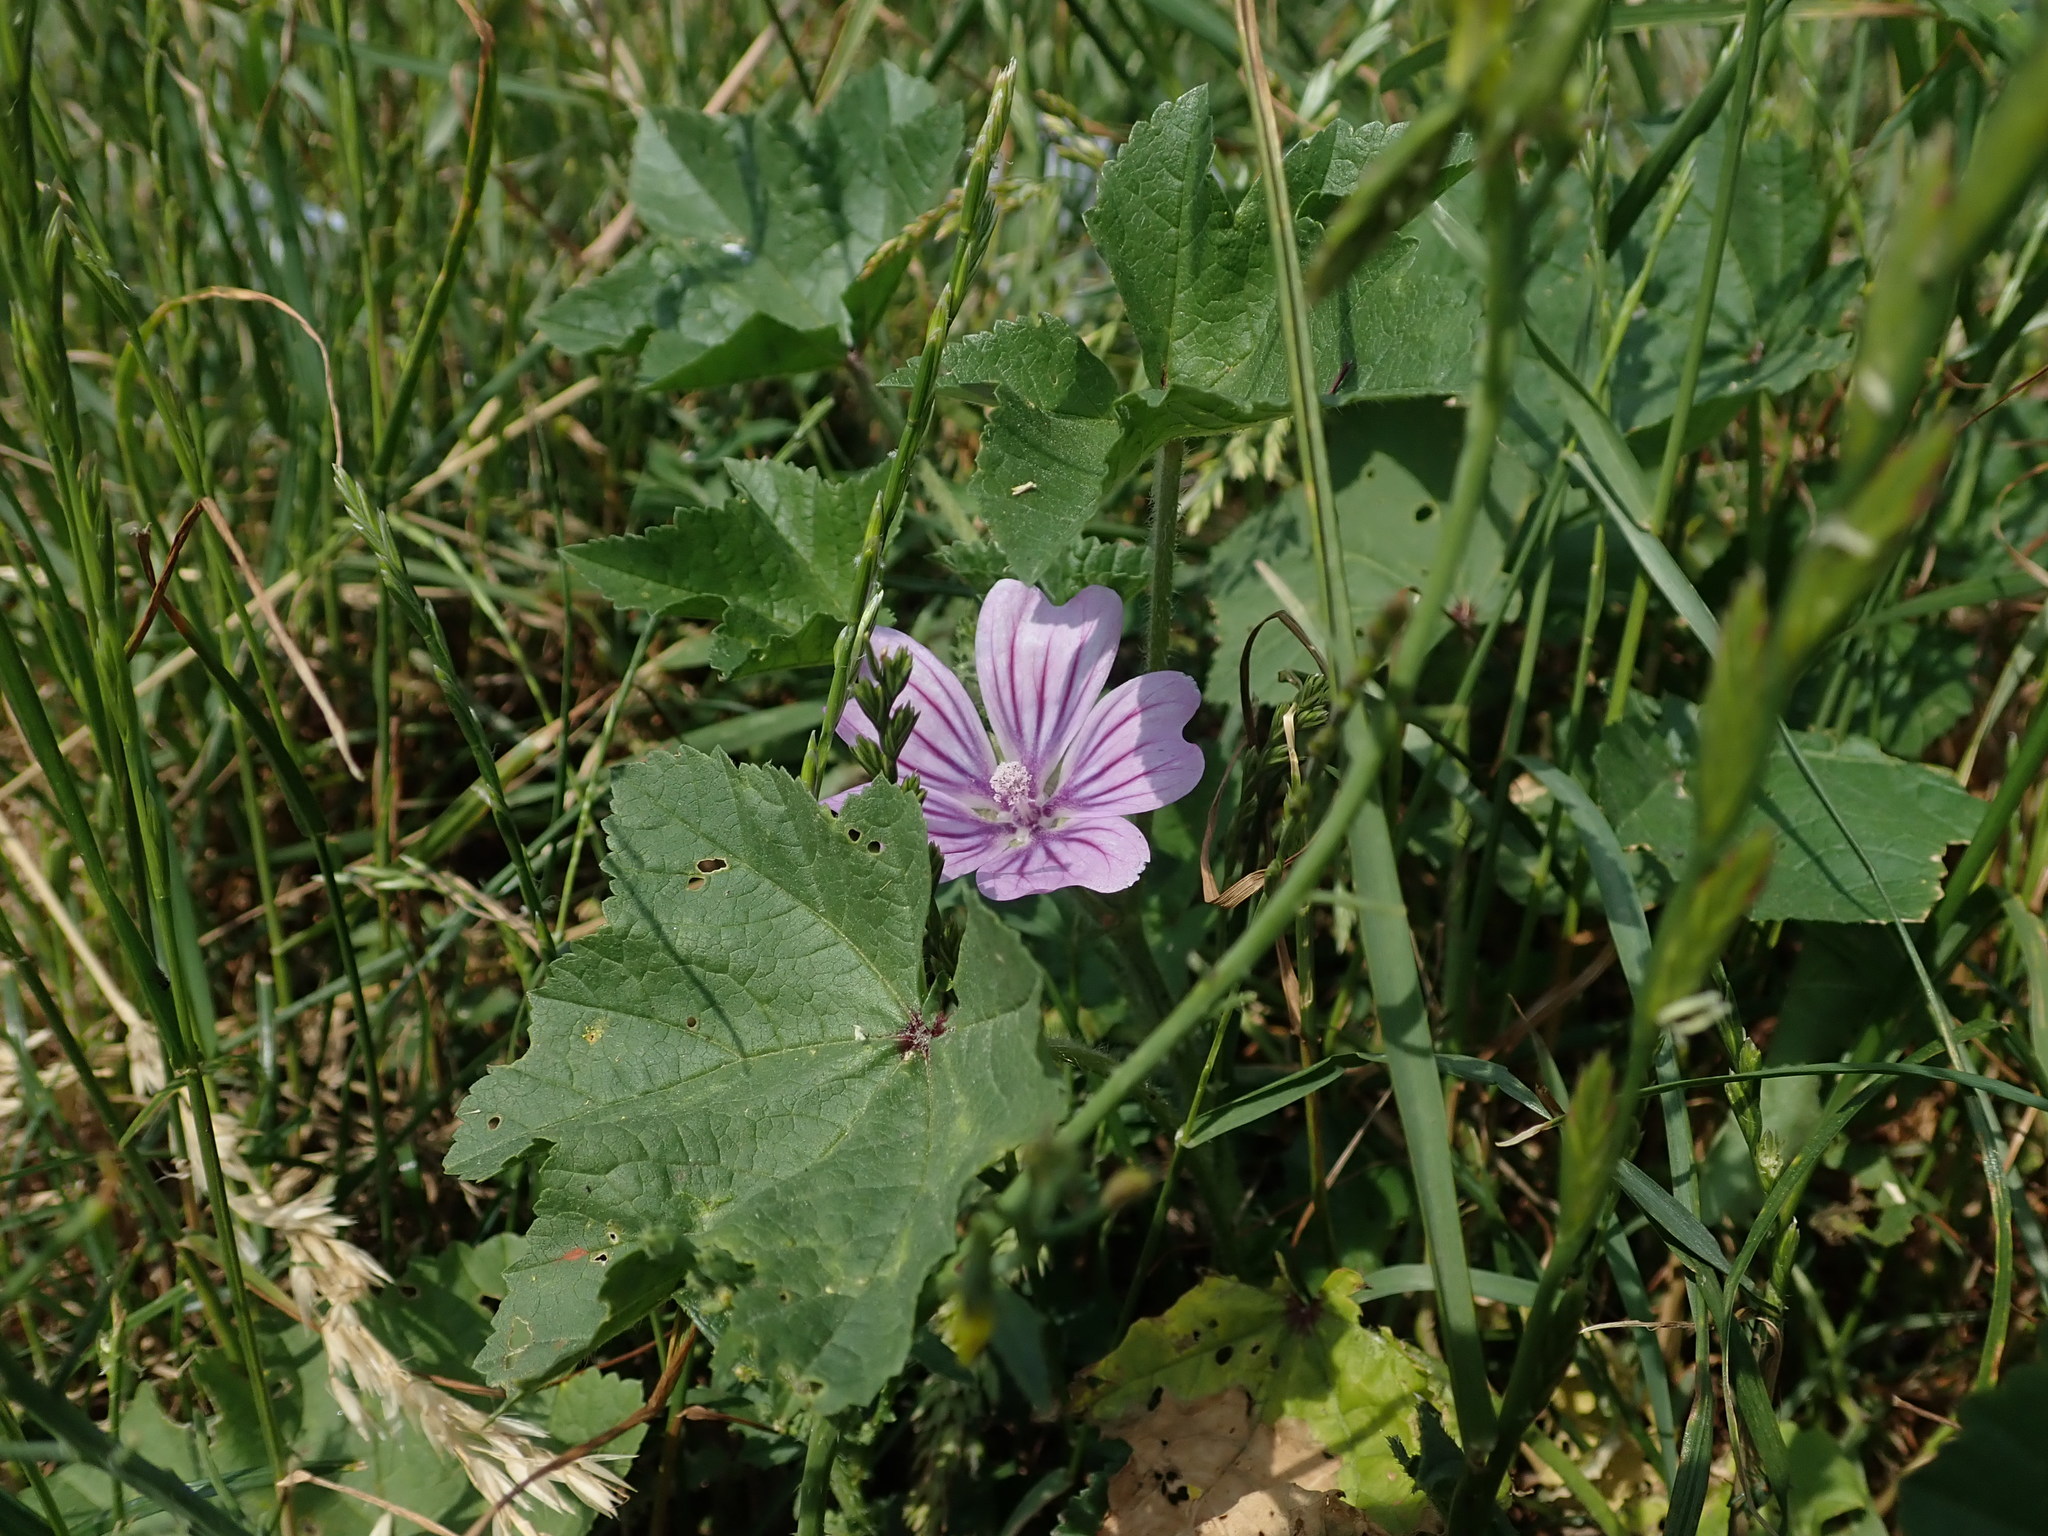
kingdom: Plantae
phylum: Tracheophyta
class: Magnoliopsida
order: Malvales
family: Malvaceae
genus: Malva
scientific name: Malva sylvestris
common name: Common mallow
